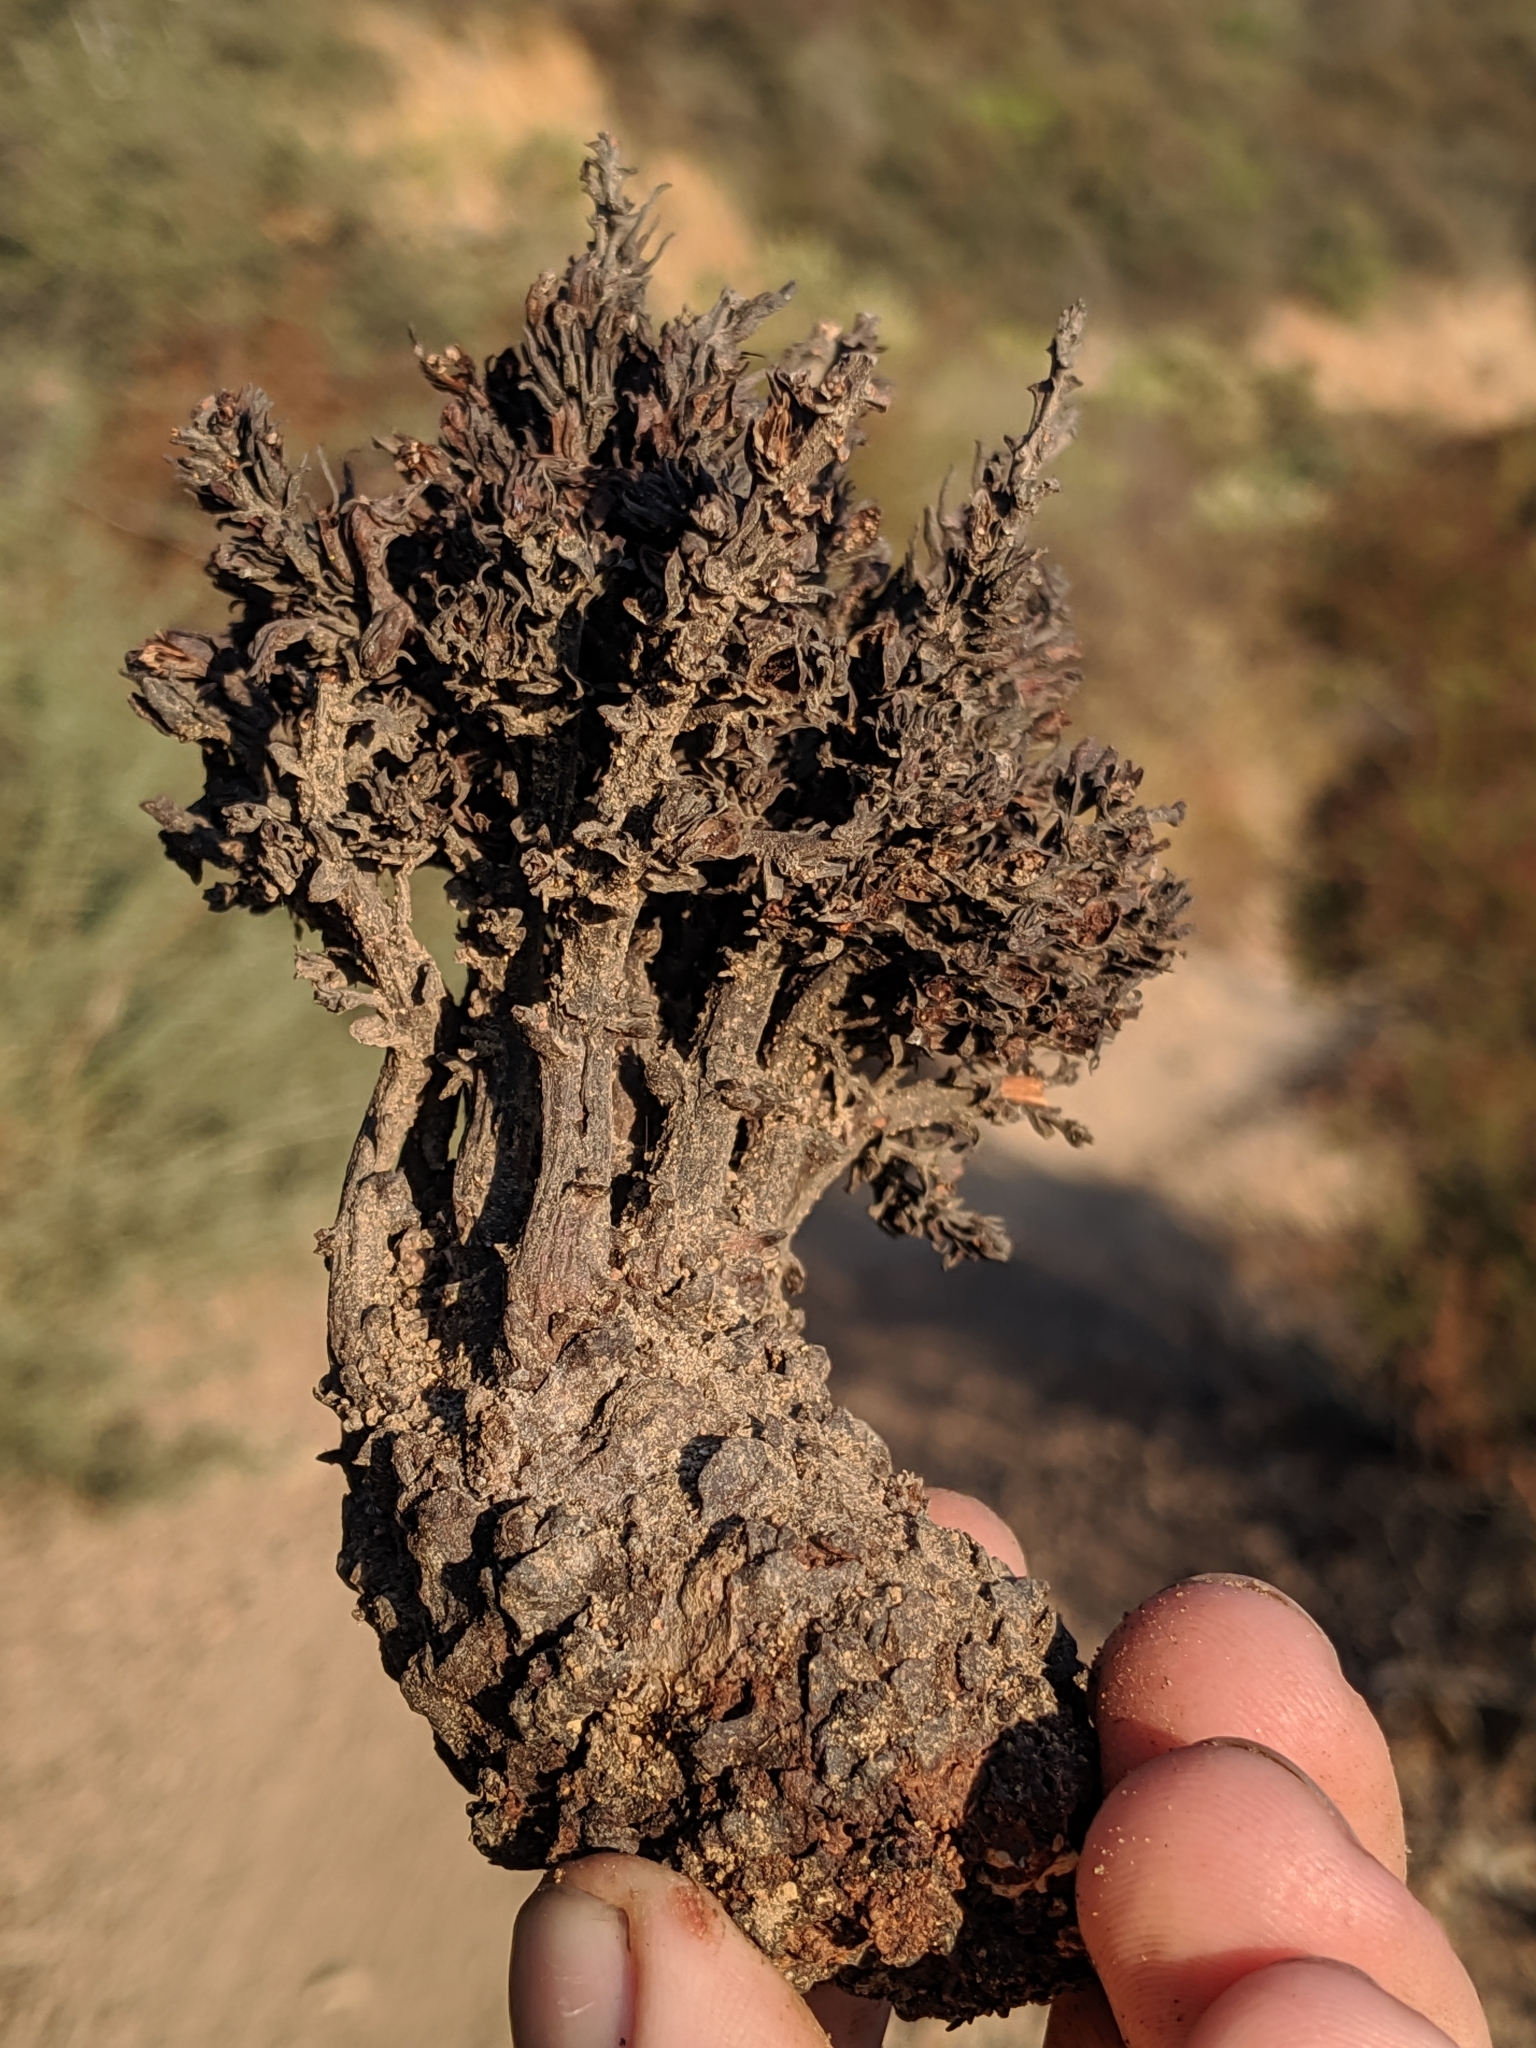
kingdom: Plantae
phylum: Tracheophyta
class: Magnoliopsida
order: Lamiales
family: Orobanchaceae
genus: Aphyllon
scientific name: Aphyllon tuberosum
